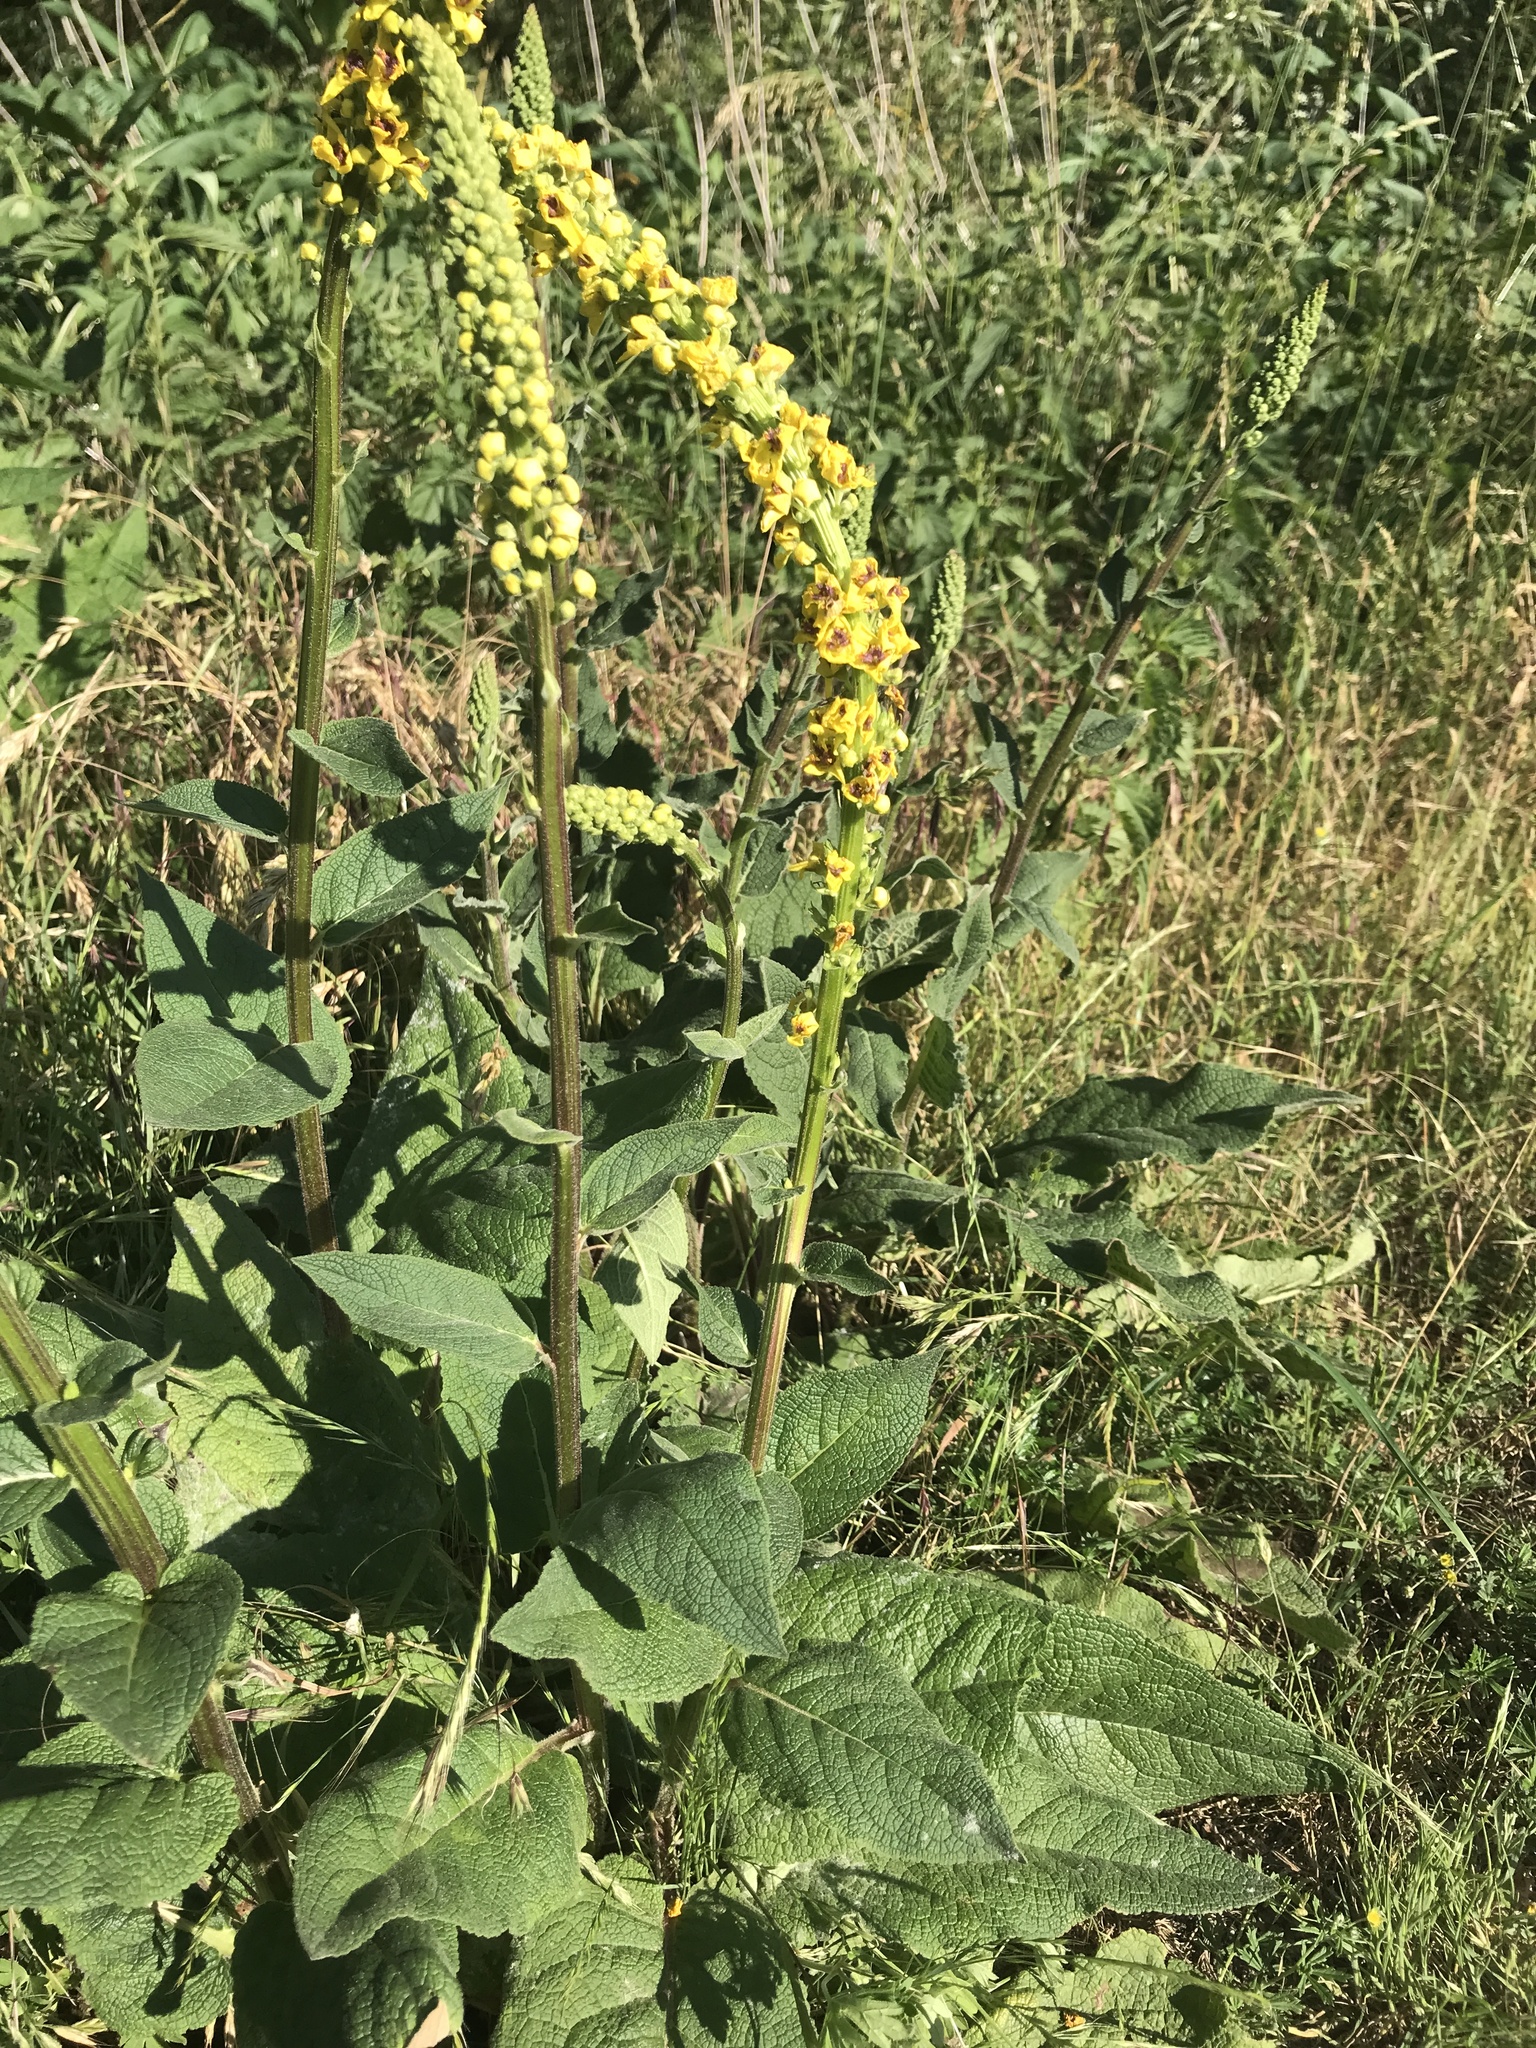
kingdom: Plantae
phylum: Tracheophyta
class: Magnoliopsida
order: Lamiales
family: Scrophulariaceae
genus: Verbascum
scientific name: Verbascum nigrum
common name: Dark mullein
